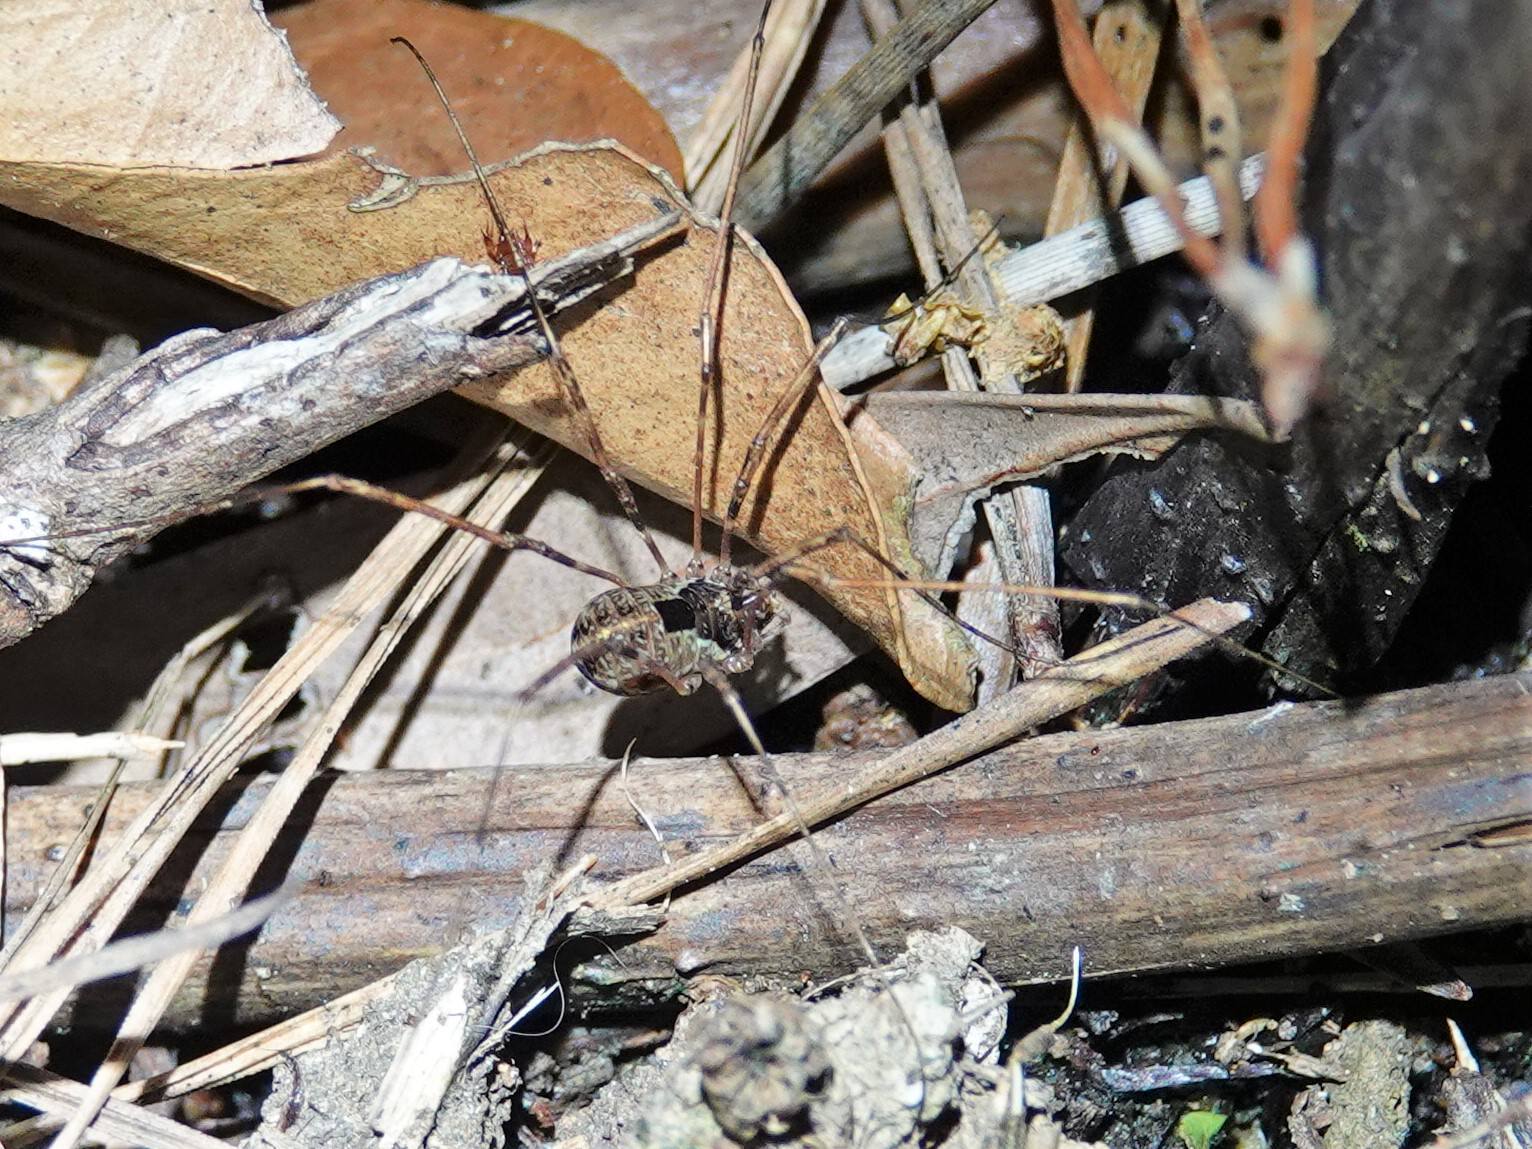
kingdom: Animalia
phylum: Arthropoda
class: Arachnida
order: Opiliones
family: Neopilionidae
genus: Forsteropsalis
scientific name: Forsteropsalis pureora
